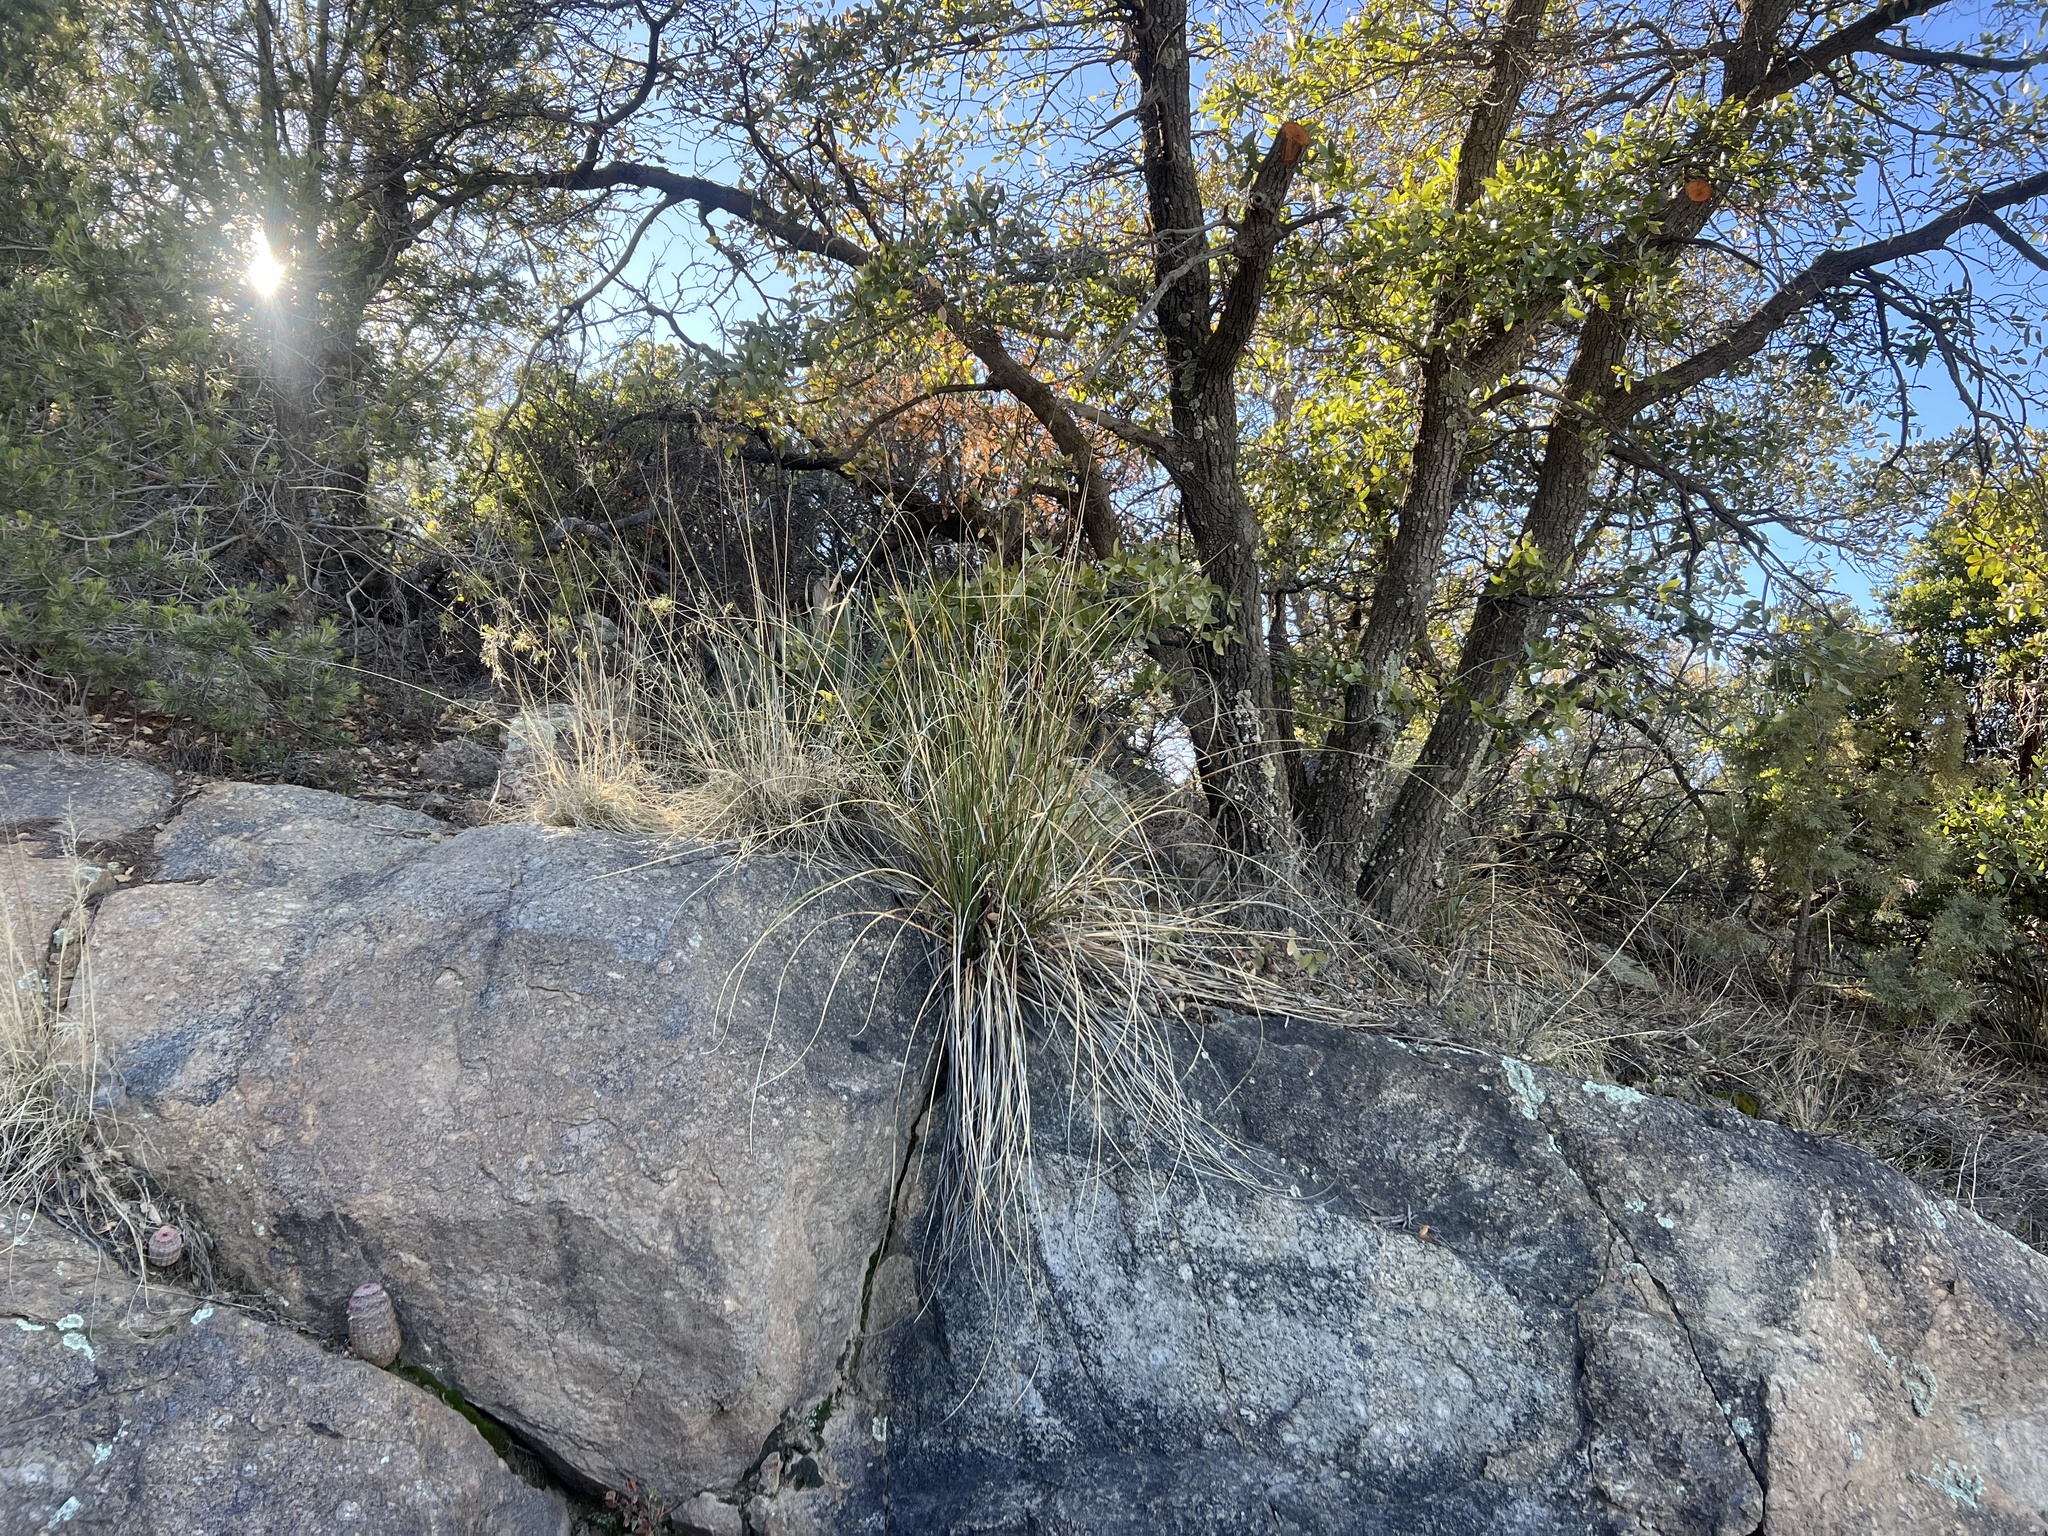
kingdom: Plantae
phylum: Tracheophyta
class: Liliopsida
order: Asparagales
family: Asparagaceae
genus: Nolina
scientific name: Nolina microcarpa
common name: Bear-grass
